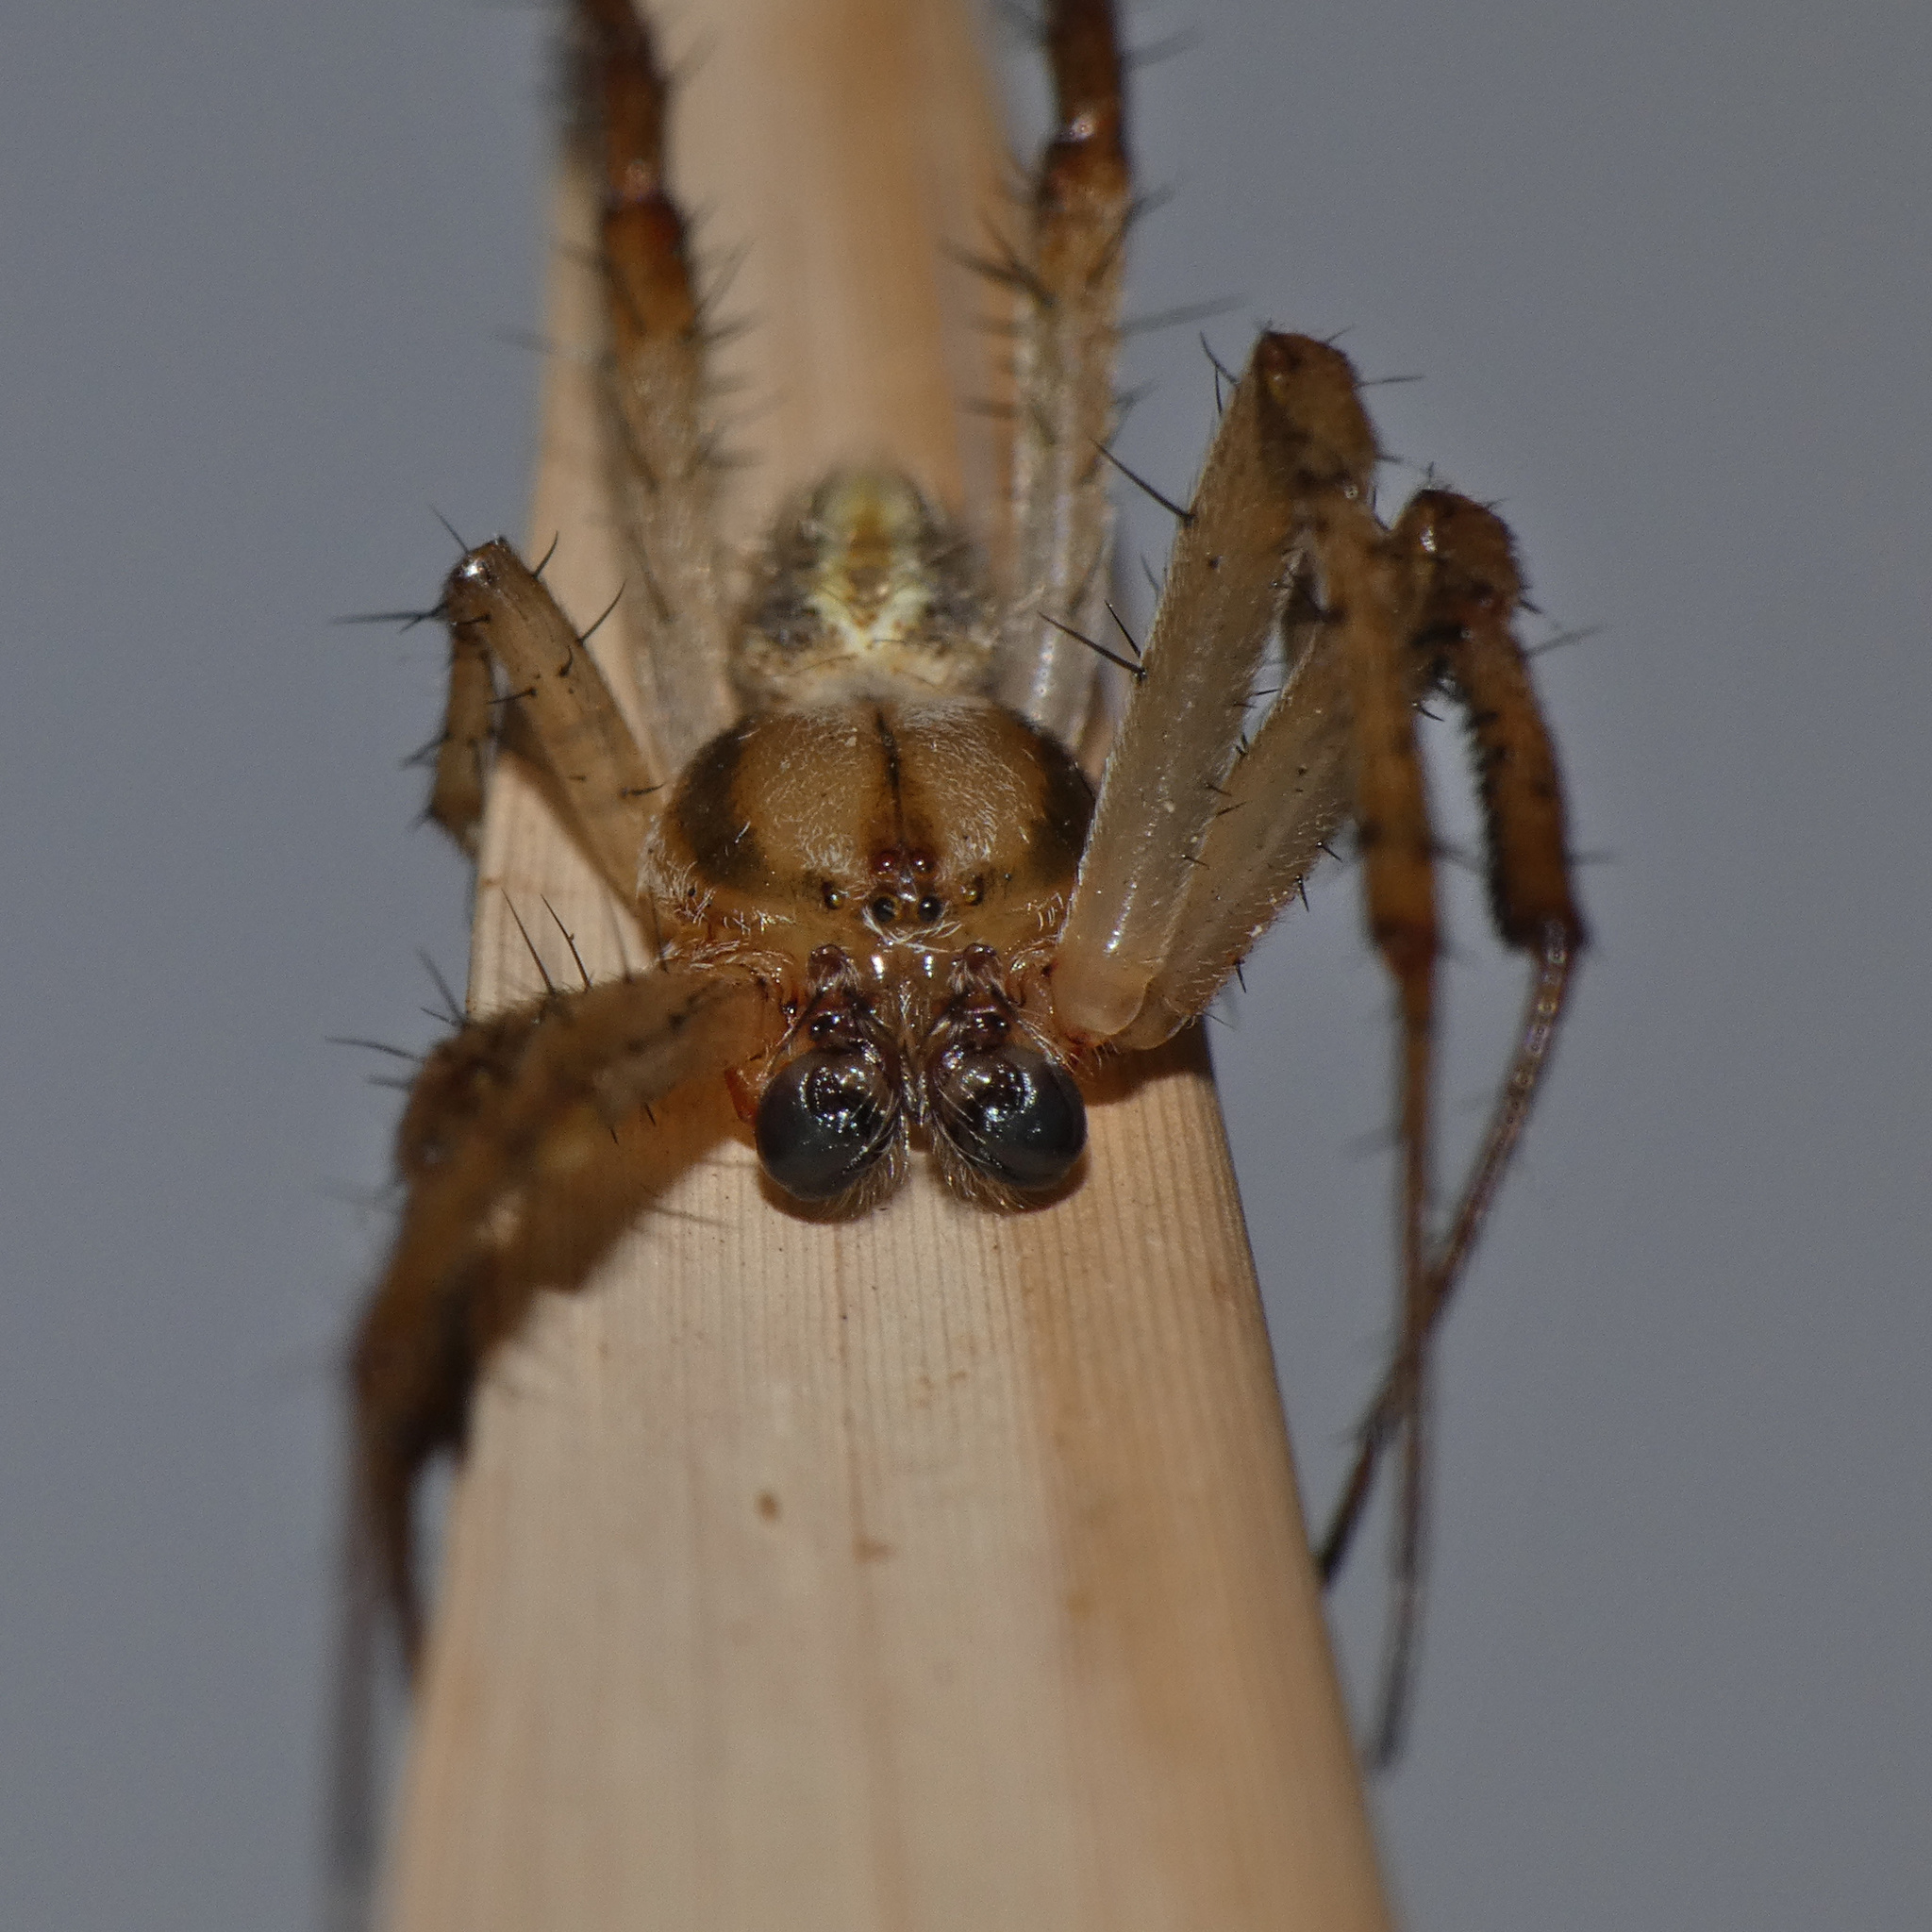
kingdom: Animalia
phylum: Arthropoda
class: Arachnida
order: Araneae
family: Araneidae
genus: Neoscona
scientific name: Neoscona moreli
